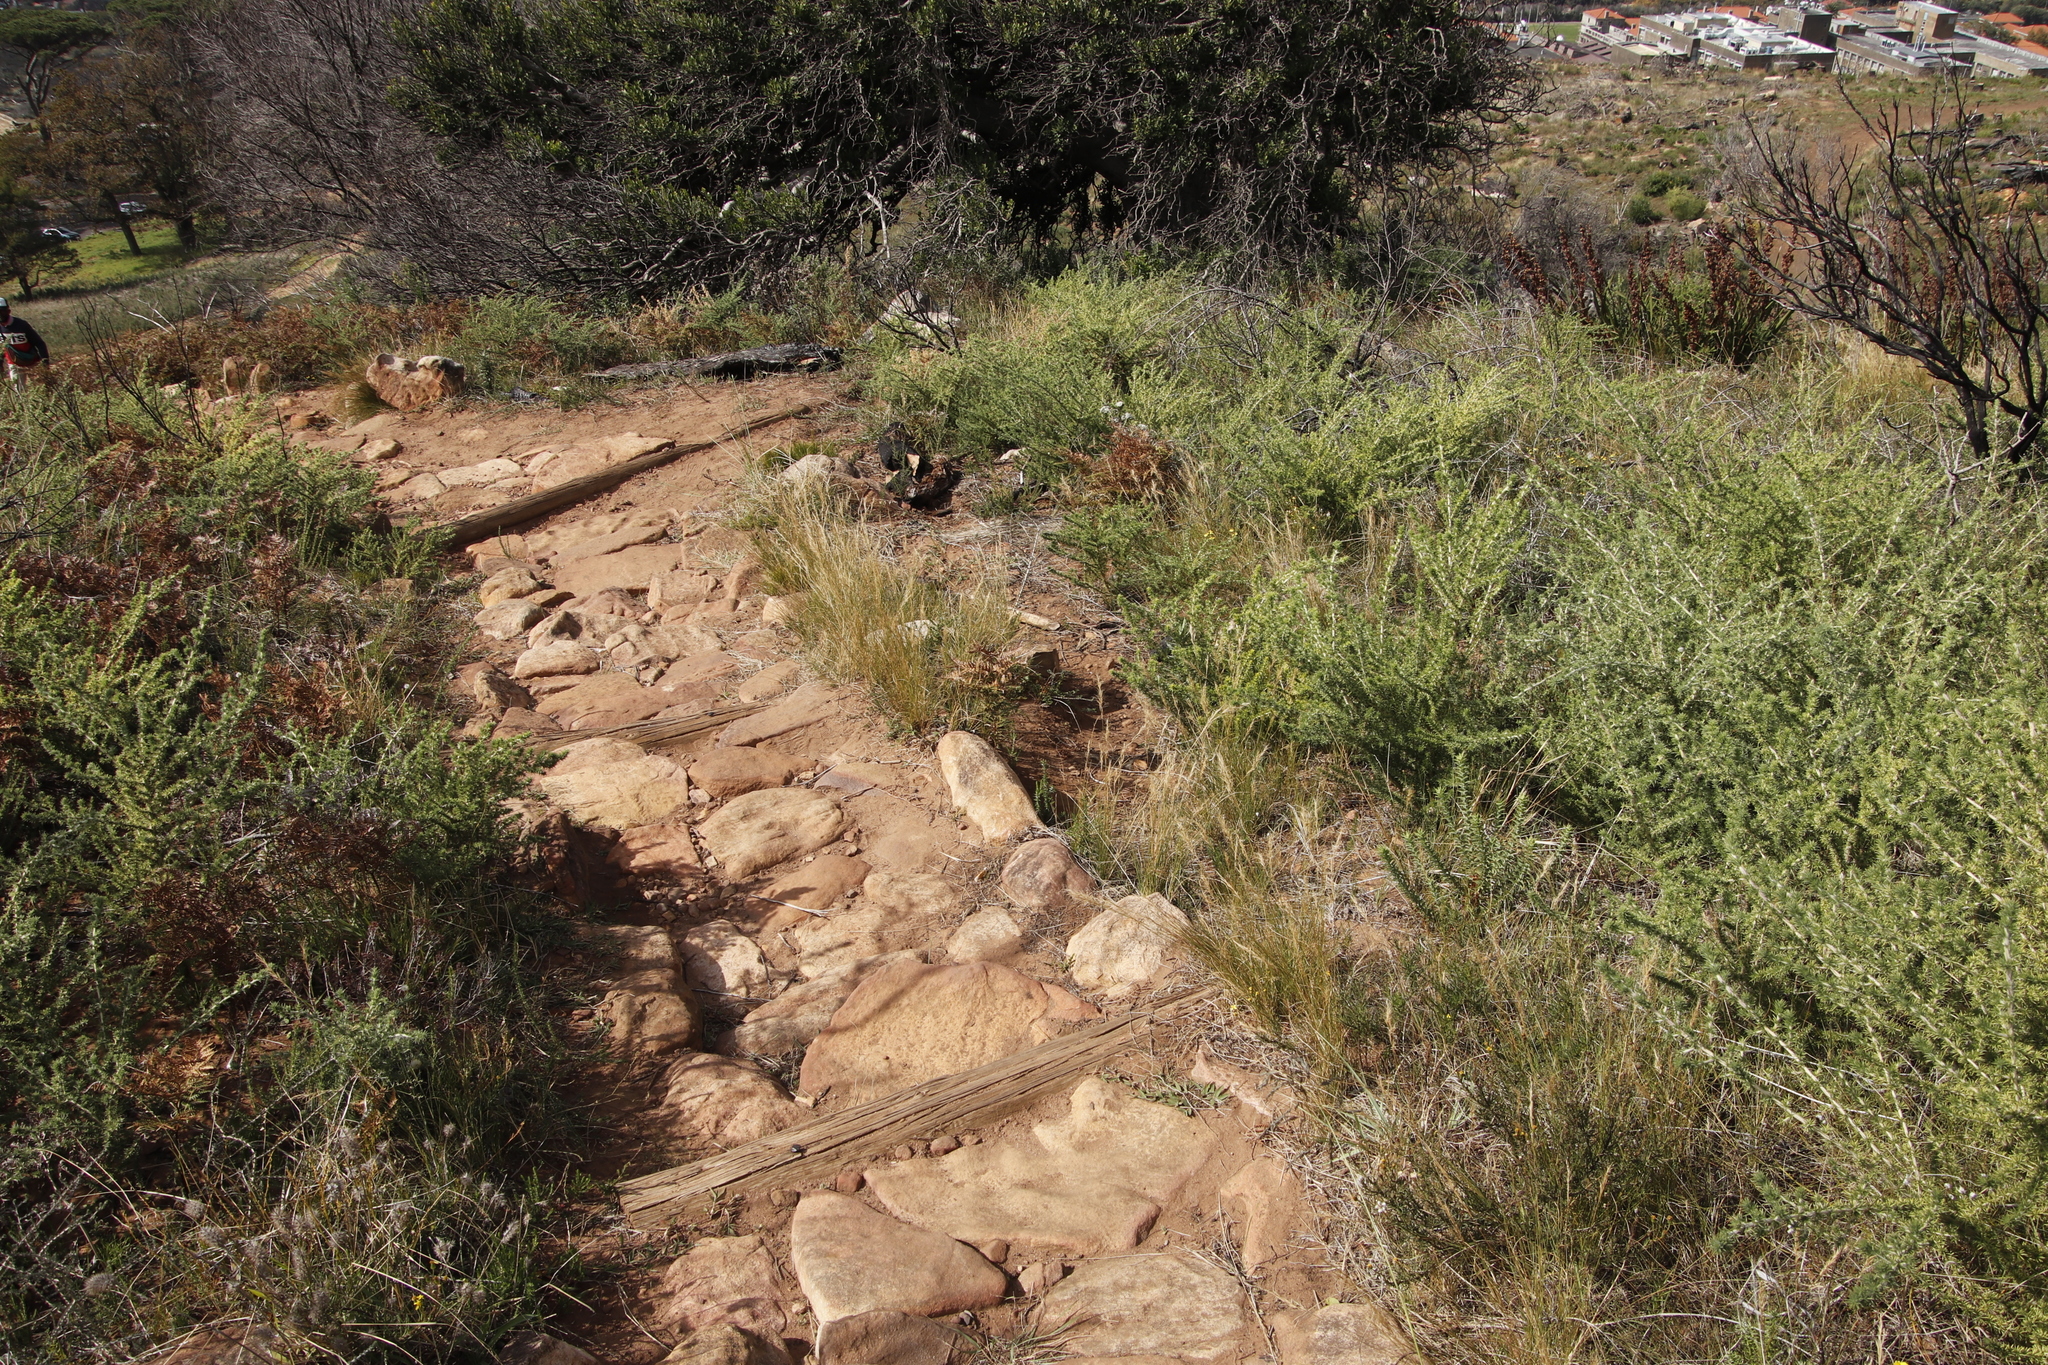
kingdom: Plantae
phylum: Tracheophyta
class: Liliopsida
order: Poales
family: Poaceae
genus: Stipagrostis
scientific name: Stipagrostis zeyheri
